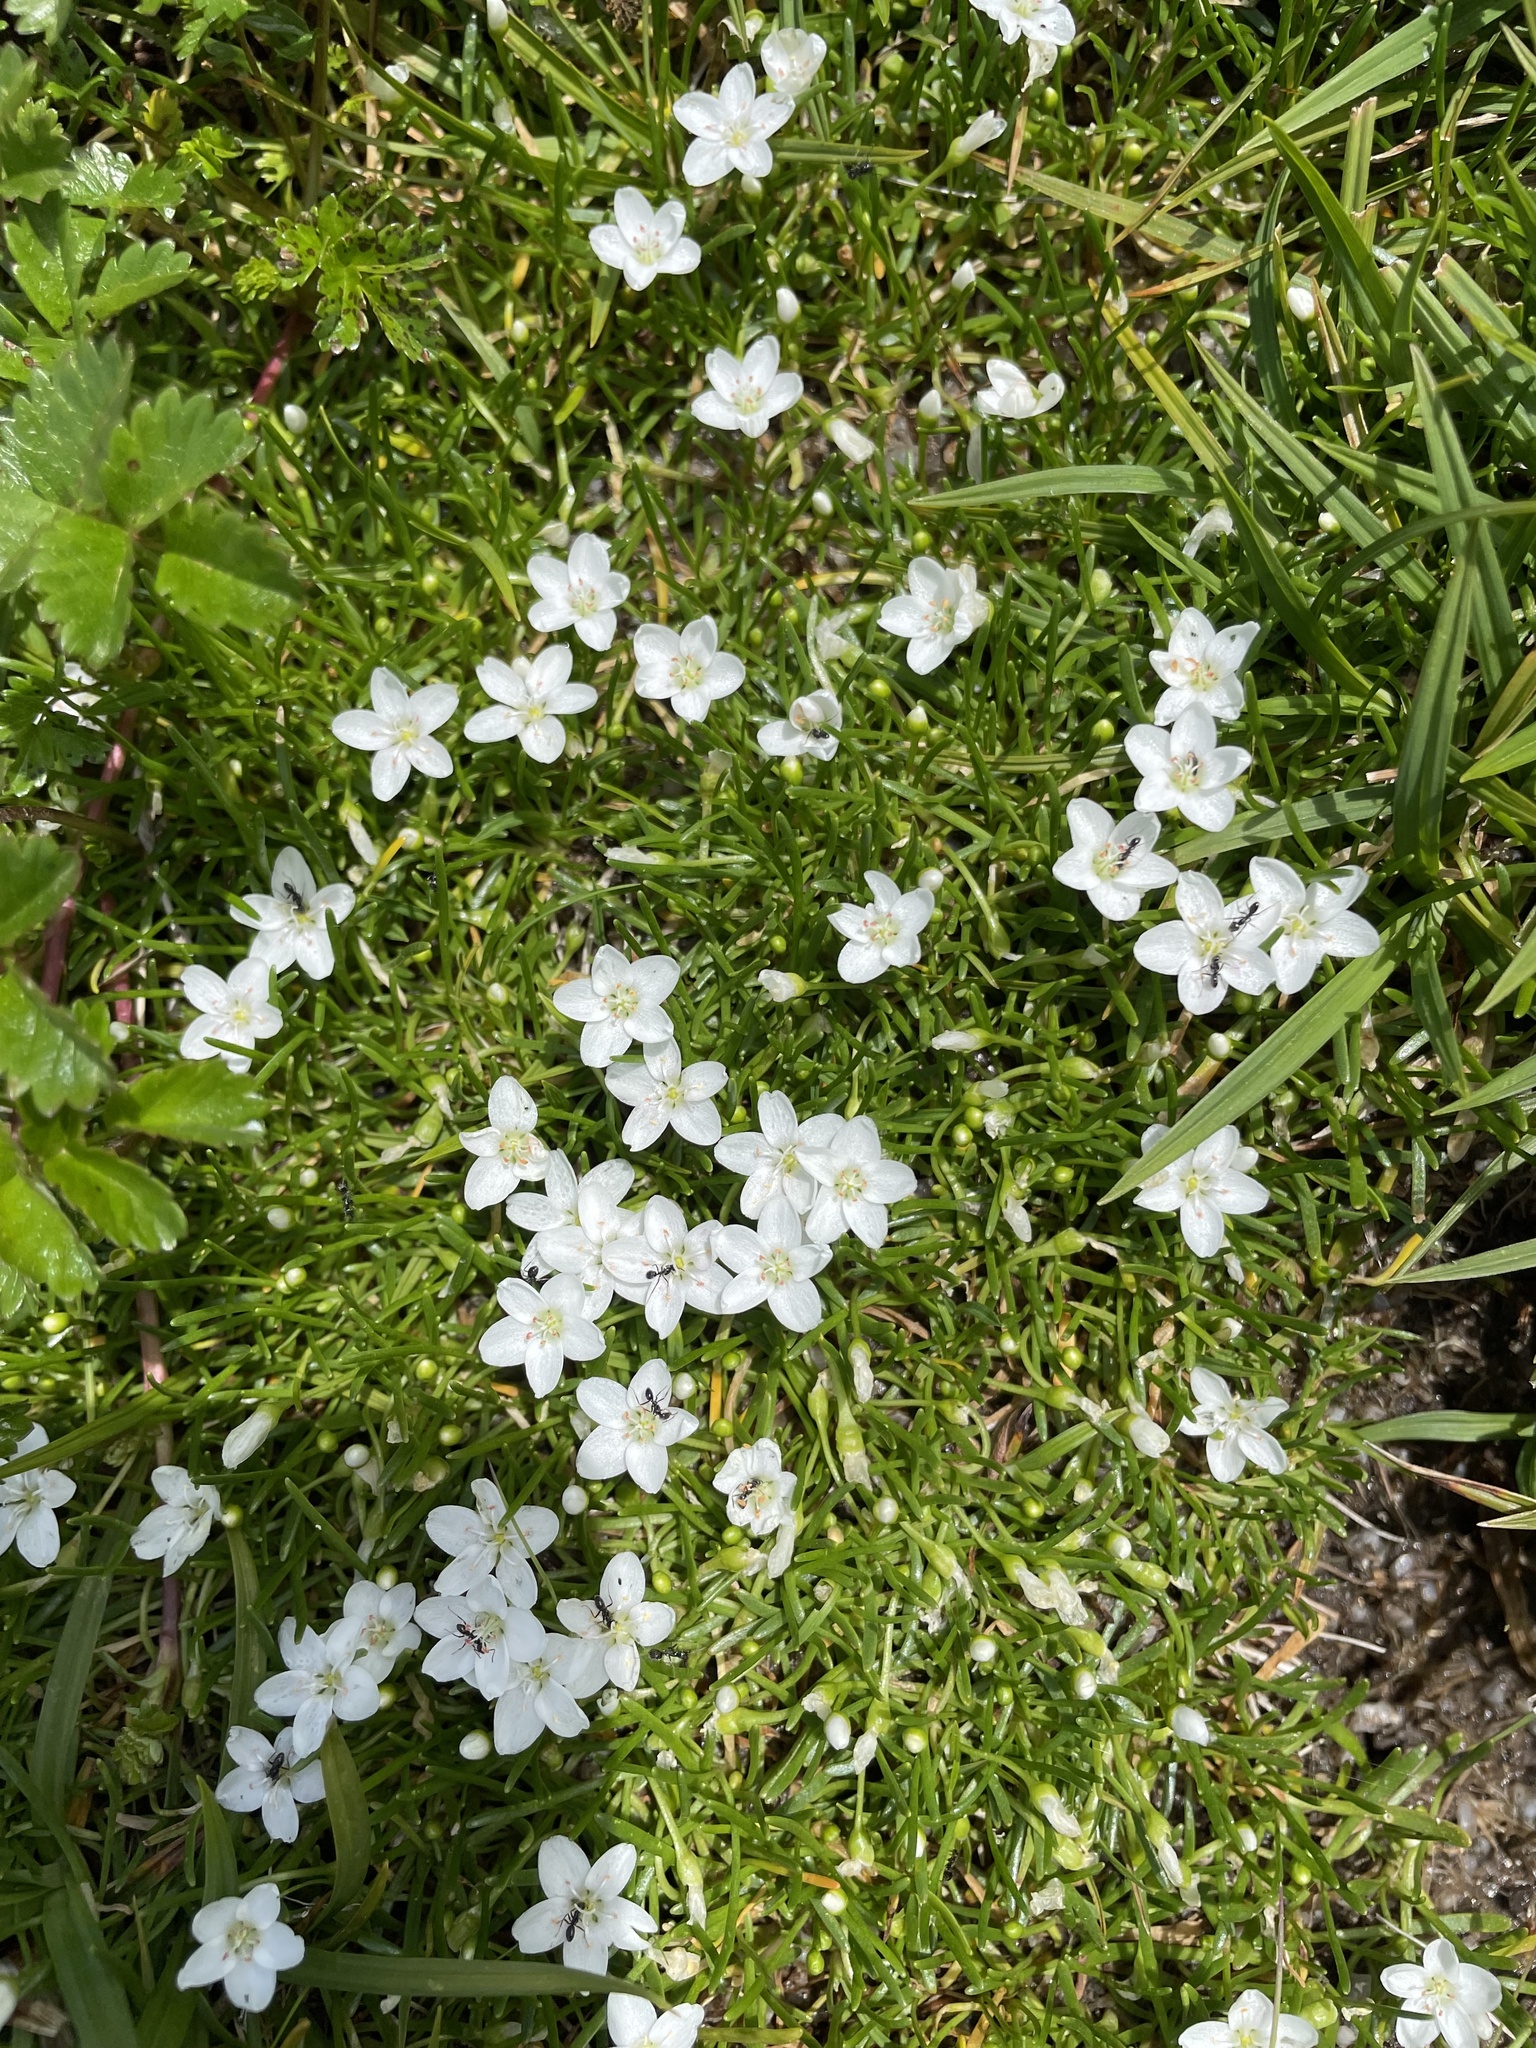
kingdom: Plantae
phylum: Tracheophyta
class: Magnoliopsida
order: Caryophyllales
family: Montiaceae
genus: Montia
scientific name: Montia australasica
